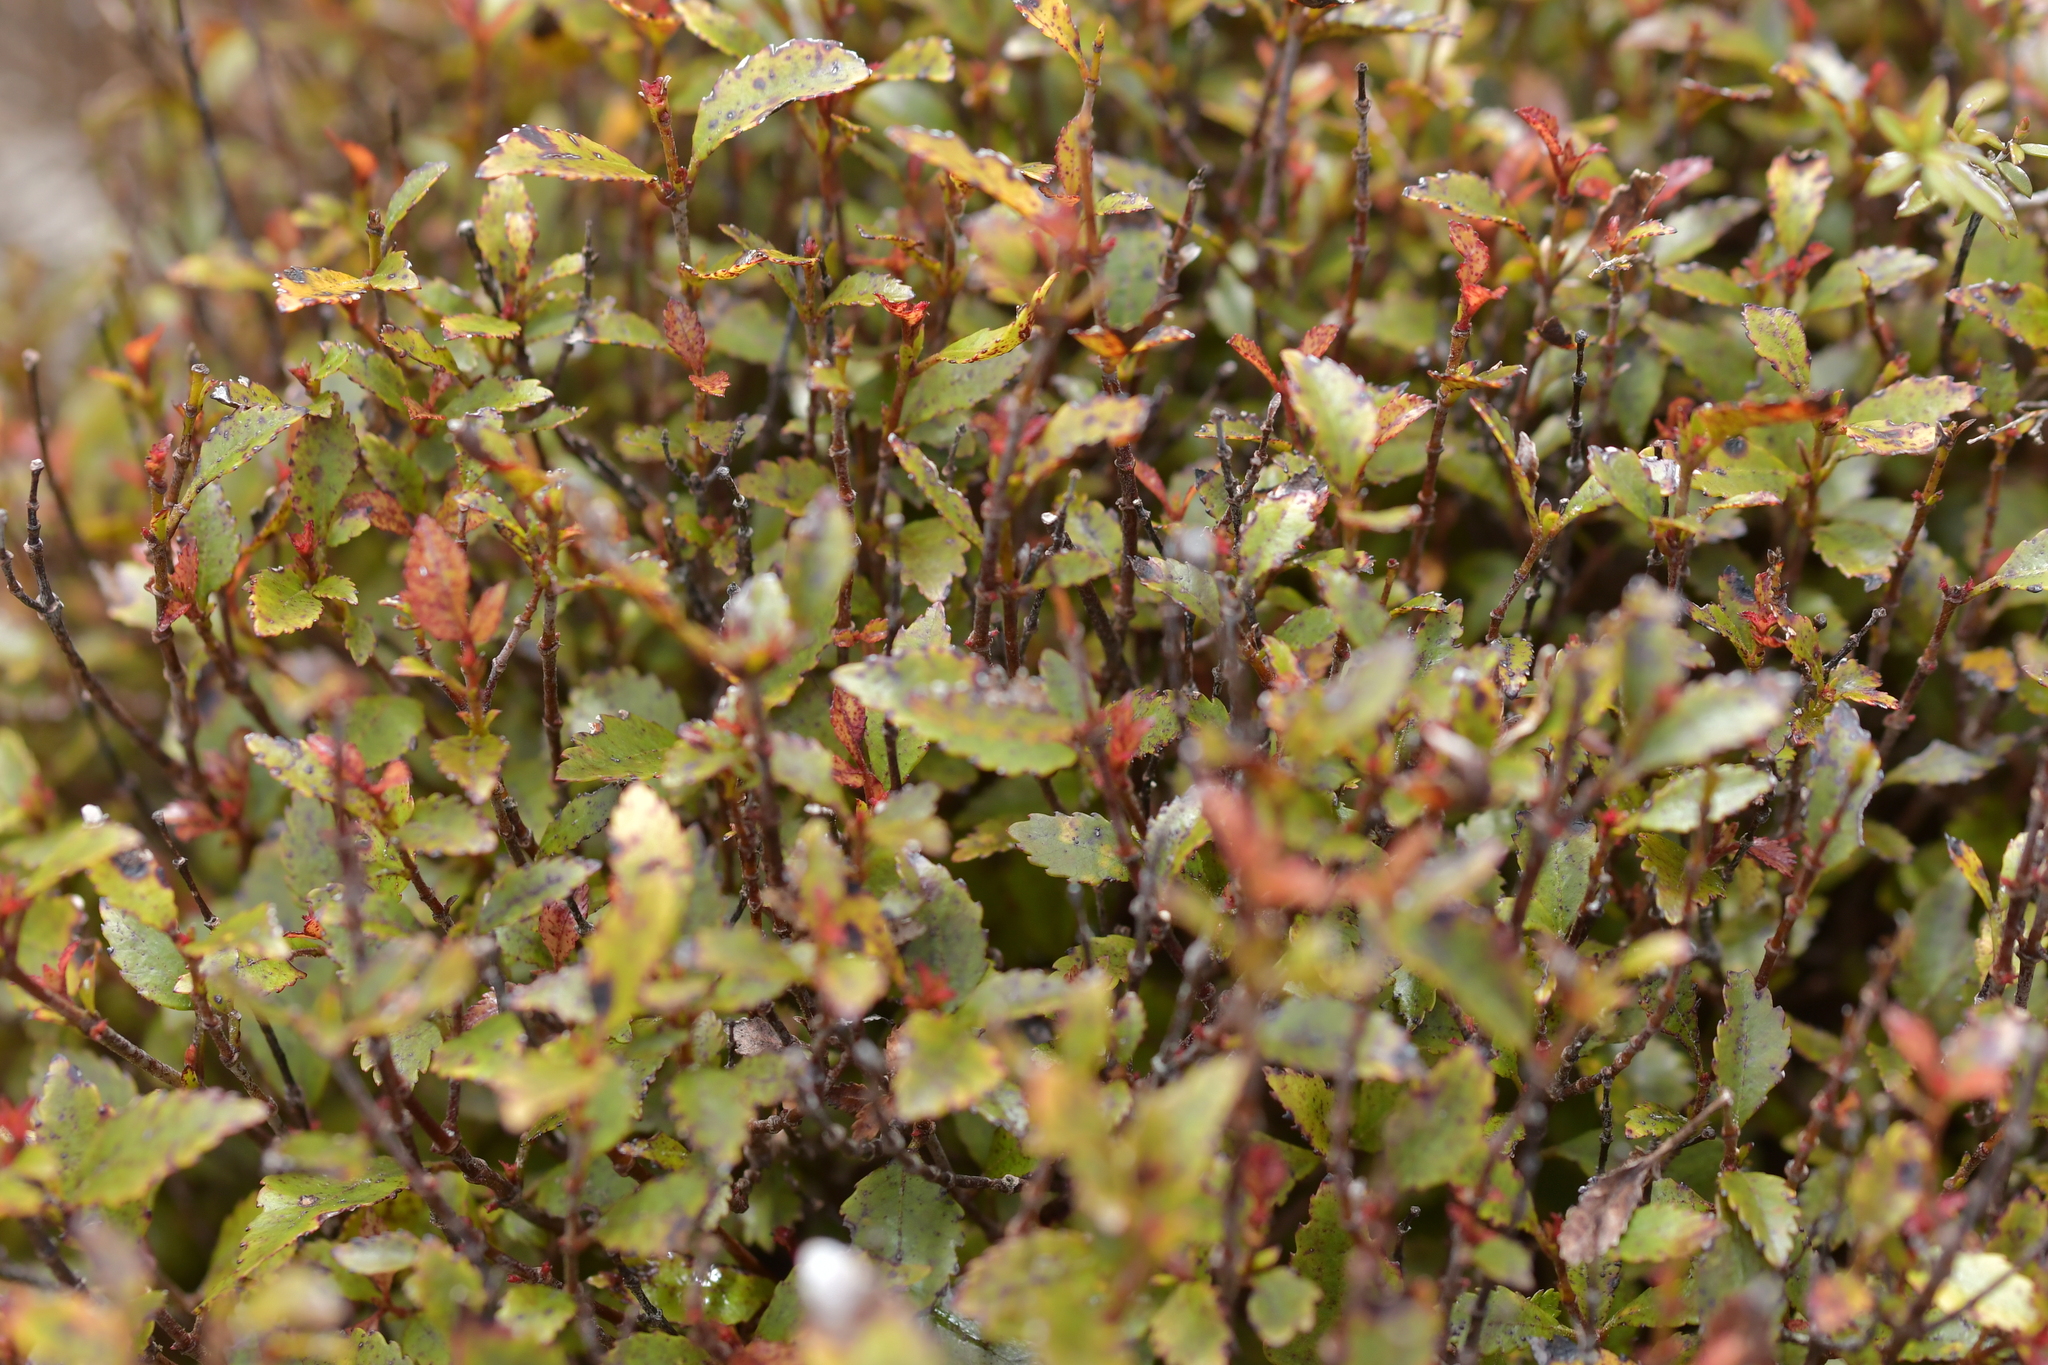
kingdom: Plantae
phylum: Tracheophyta
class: Magnoliopsida
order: Oxalidales
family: Cunoniaceae
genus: Pterophylla
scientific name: Pterophylla racemosa
